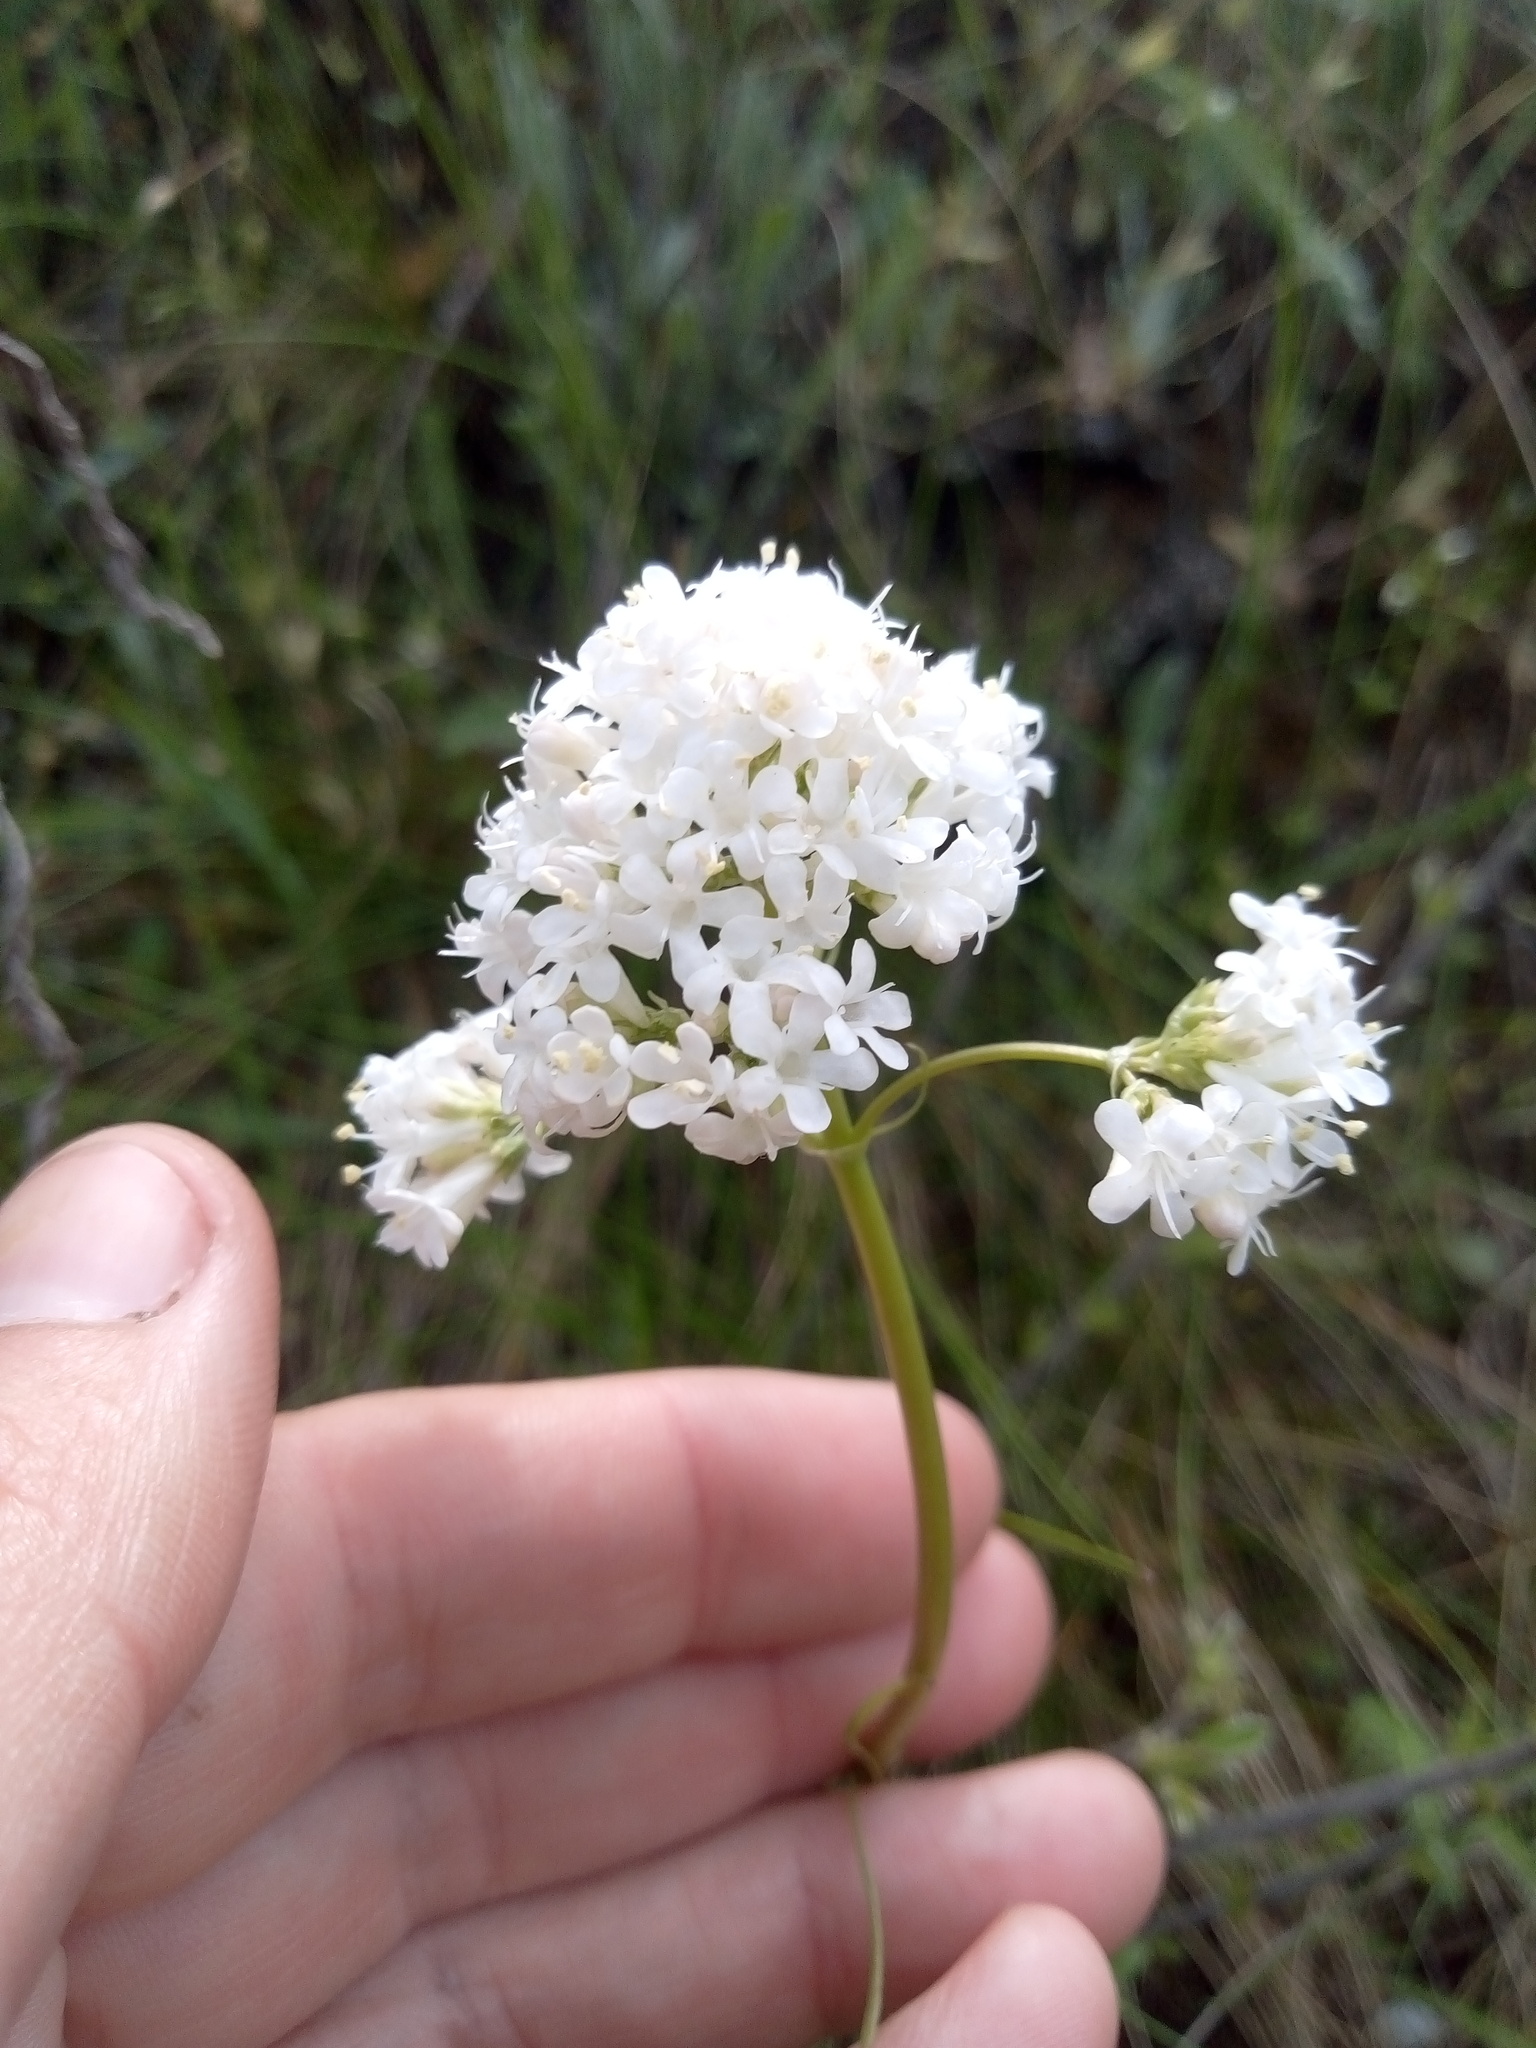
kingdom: Plantae
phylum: Tracheophyta
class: Magnoliopsida
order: Dipsacales
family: Caprifoliaceae
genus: Valeriana
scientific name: Valeriana tuberosa
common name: Tuberous valerian
